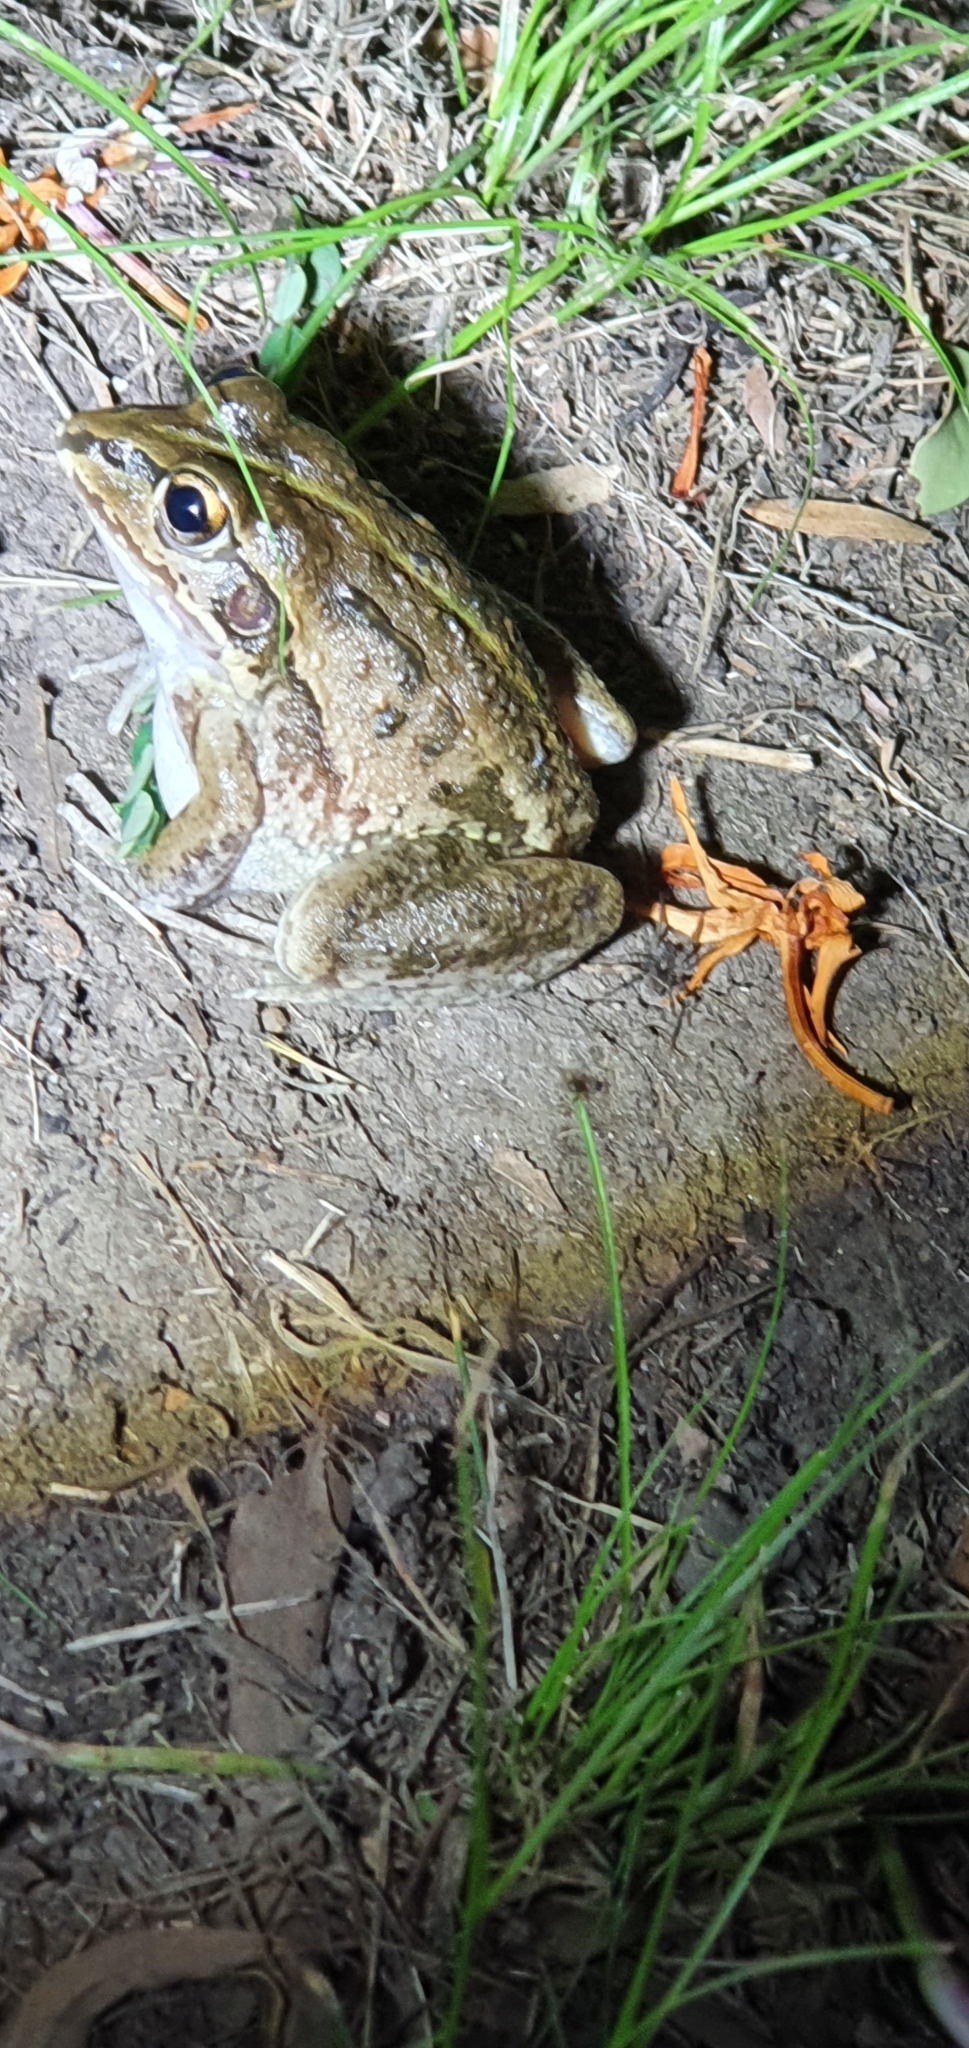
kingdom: Animalia
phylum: Chordata
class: Amphibia
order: Anura
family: Pelodryadidae
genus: Ranoidea
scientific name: Ranoidea alboguttata
